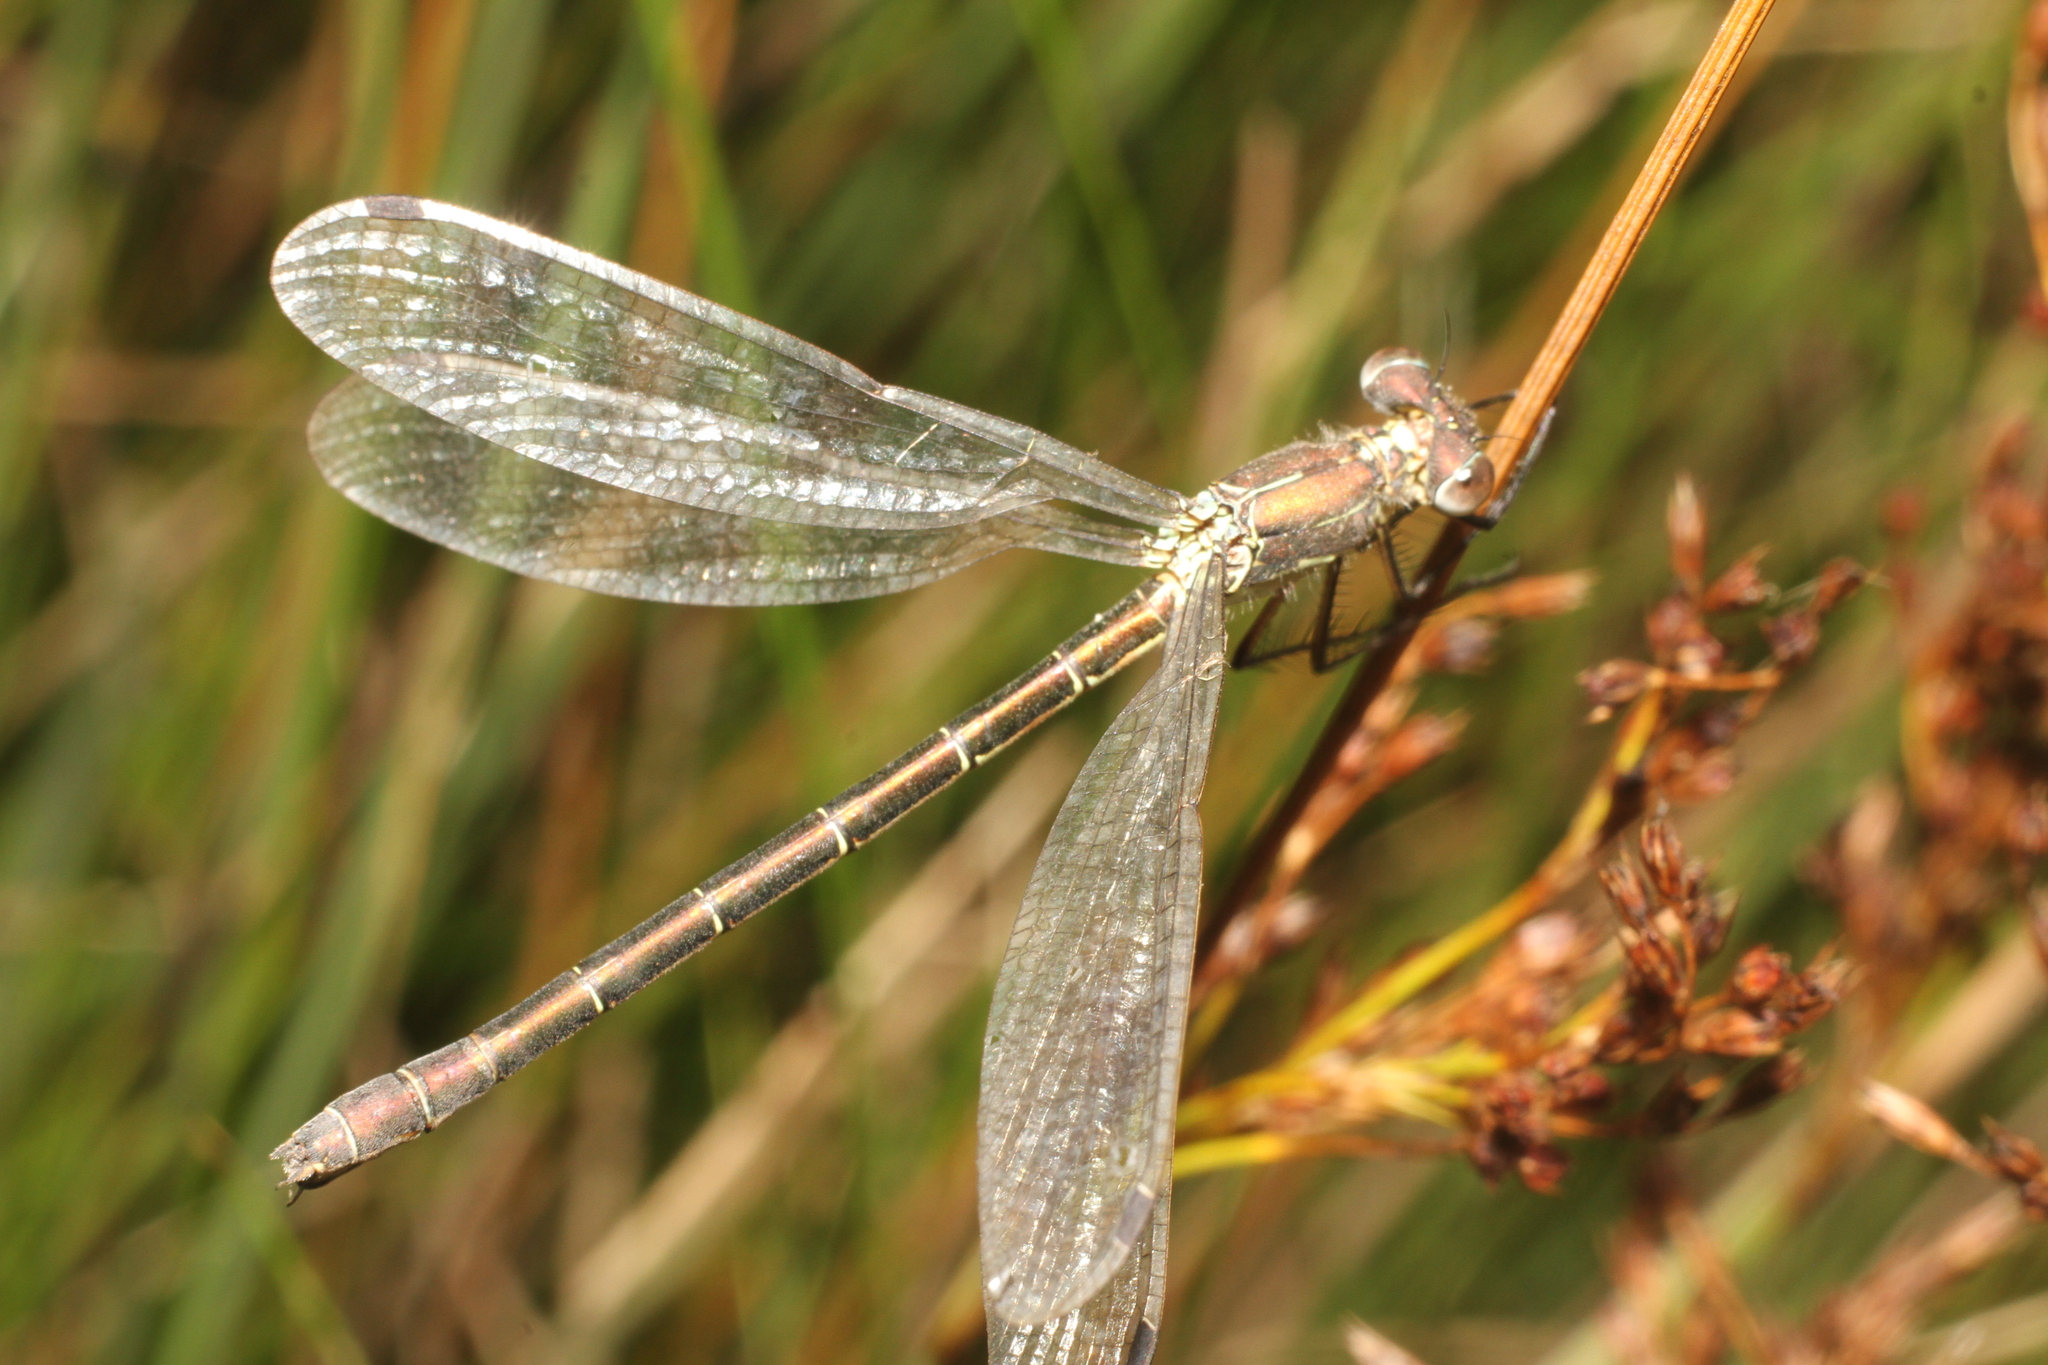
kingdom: Animalia
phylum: Arthropoda
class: Insecta
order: Odonata
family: Lestidae
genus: Lestes
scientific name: Lestes sponsa
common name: Common spreadwing
